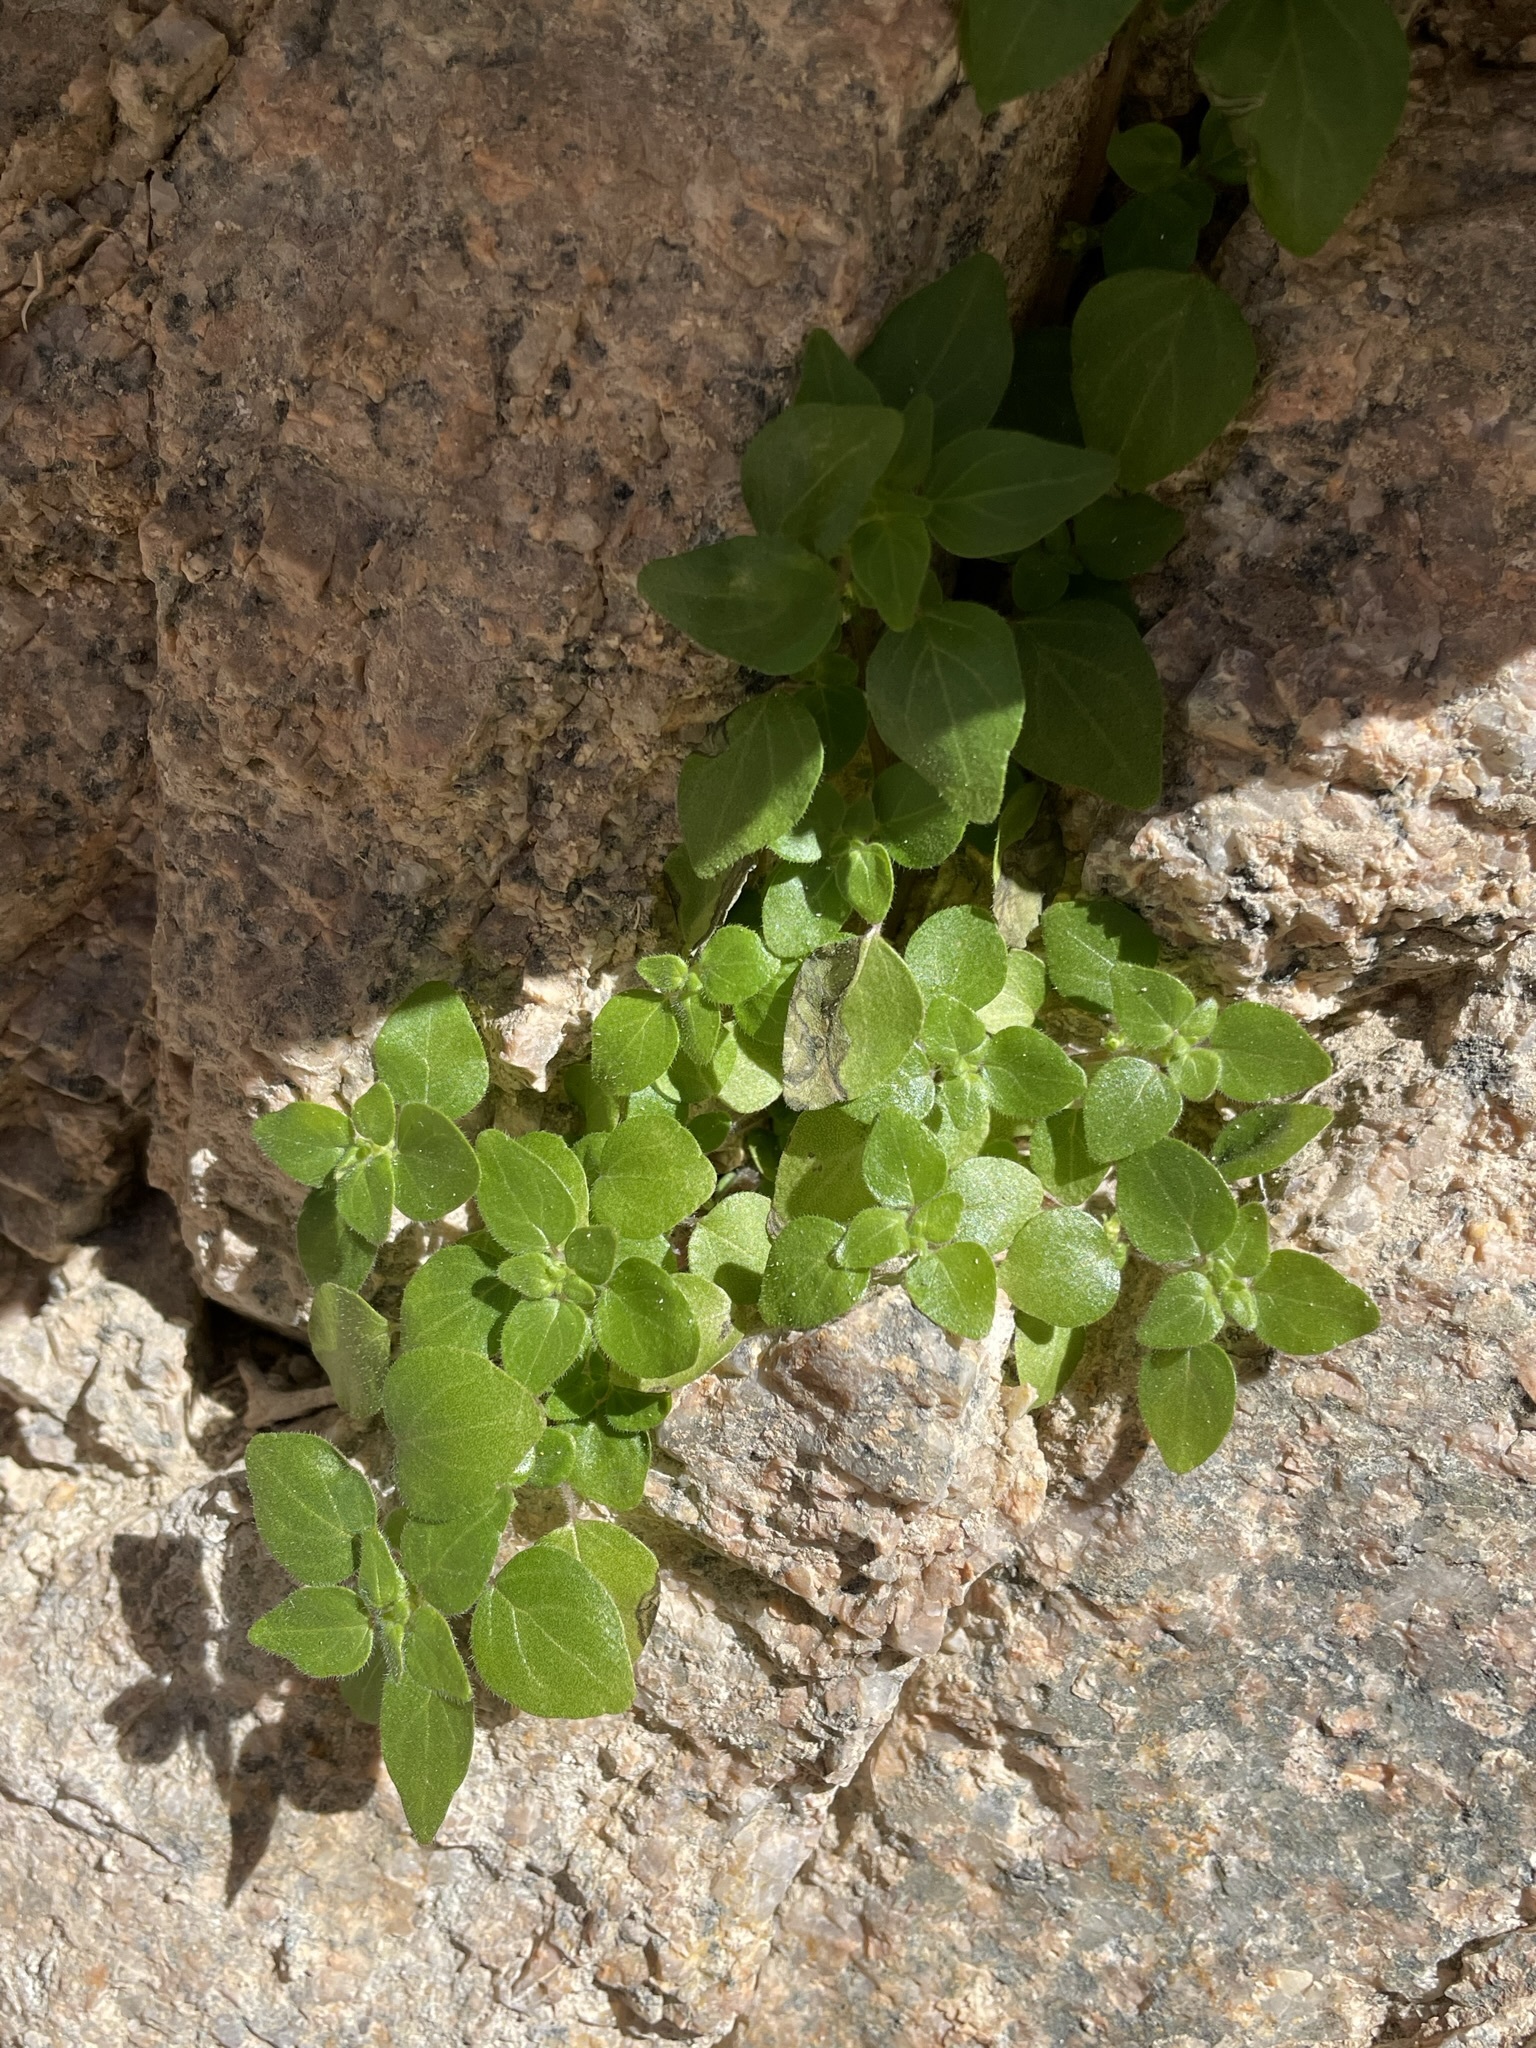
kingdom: Plantae
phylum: Tracheophyta
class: Magnoliopsida
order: Rosales
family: Urticaceae
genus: Parietaria
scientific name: Parietaria hespera
